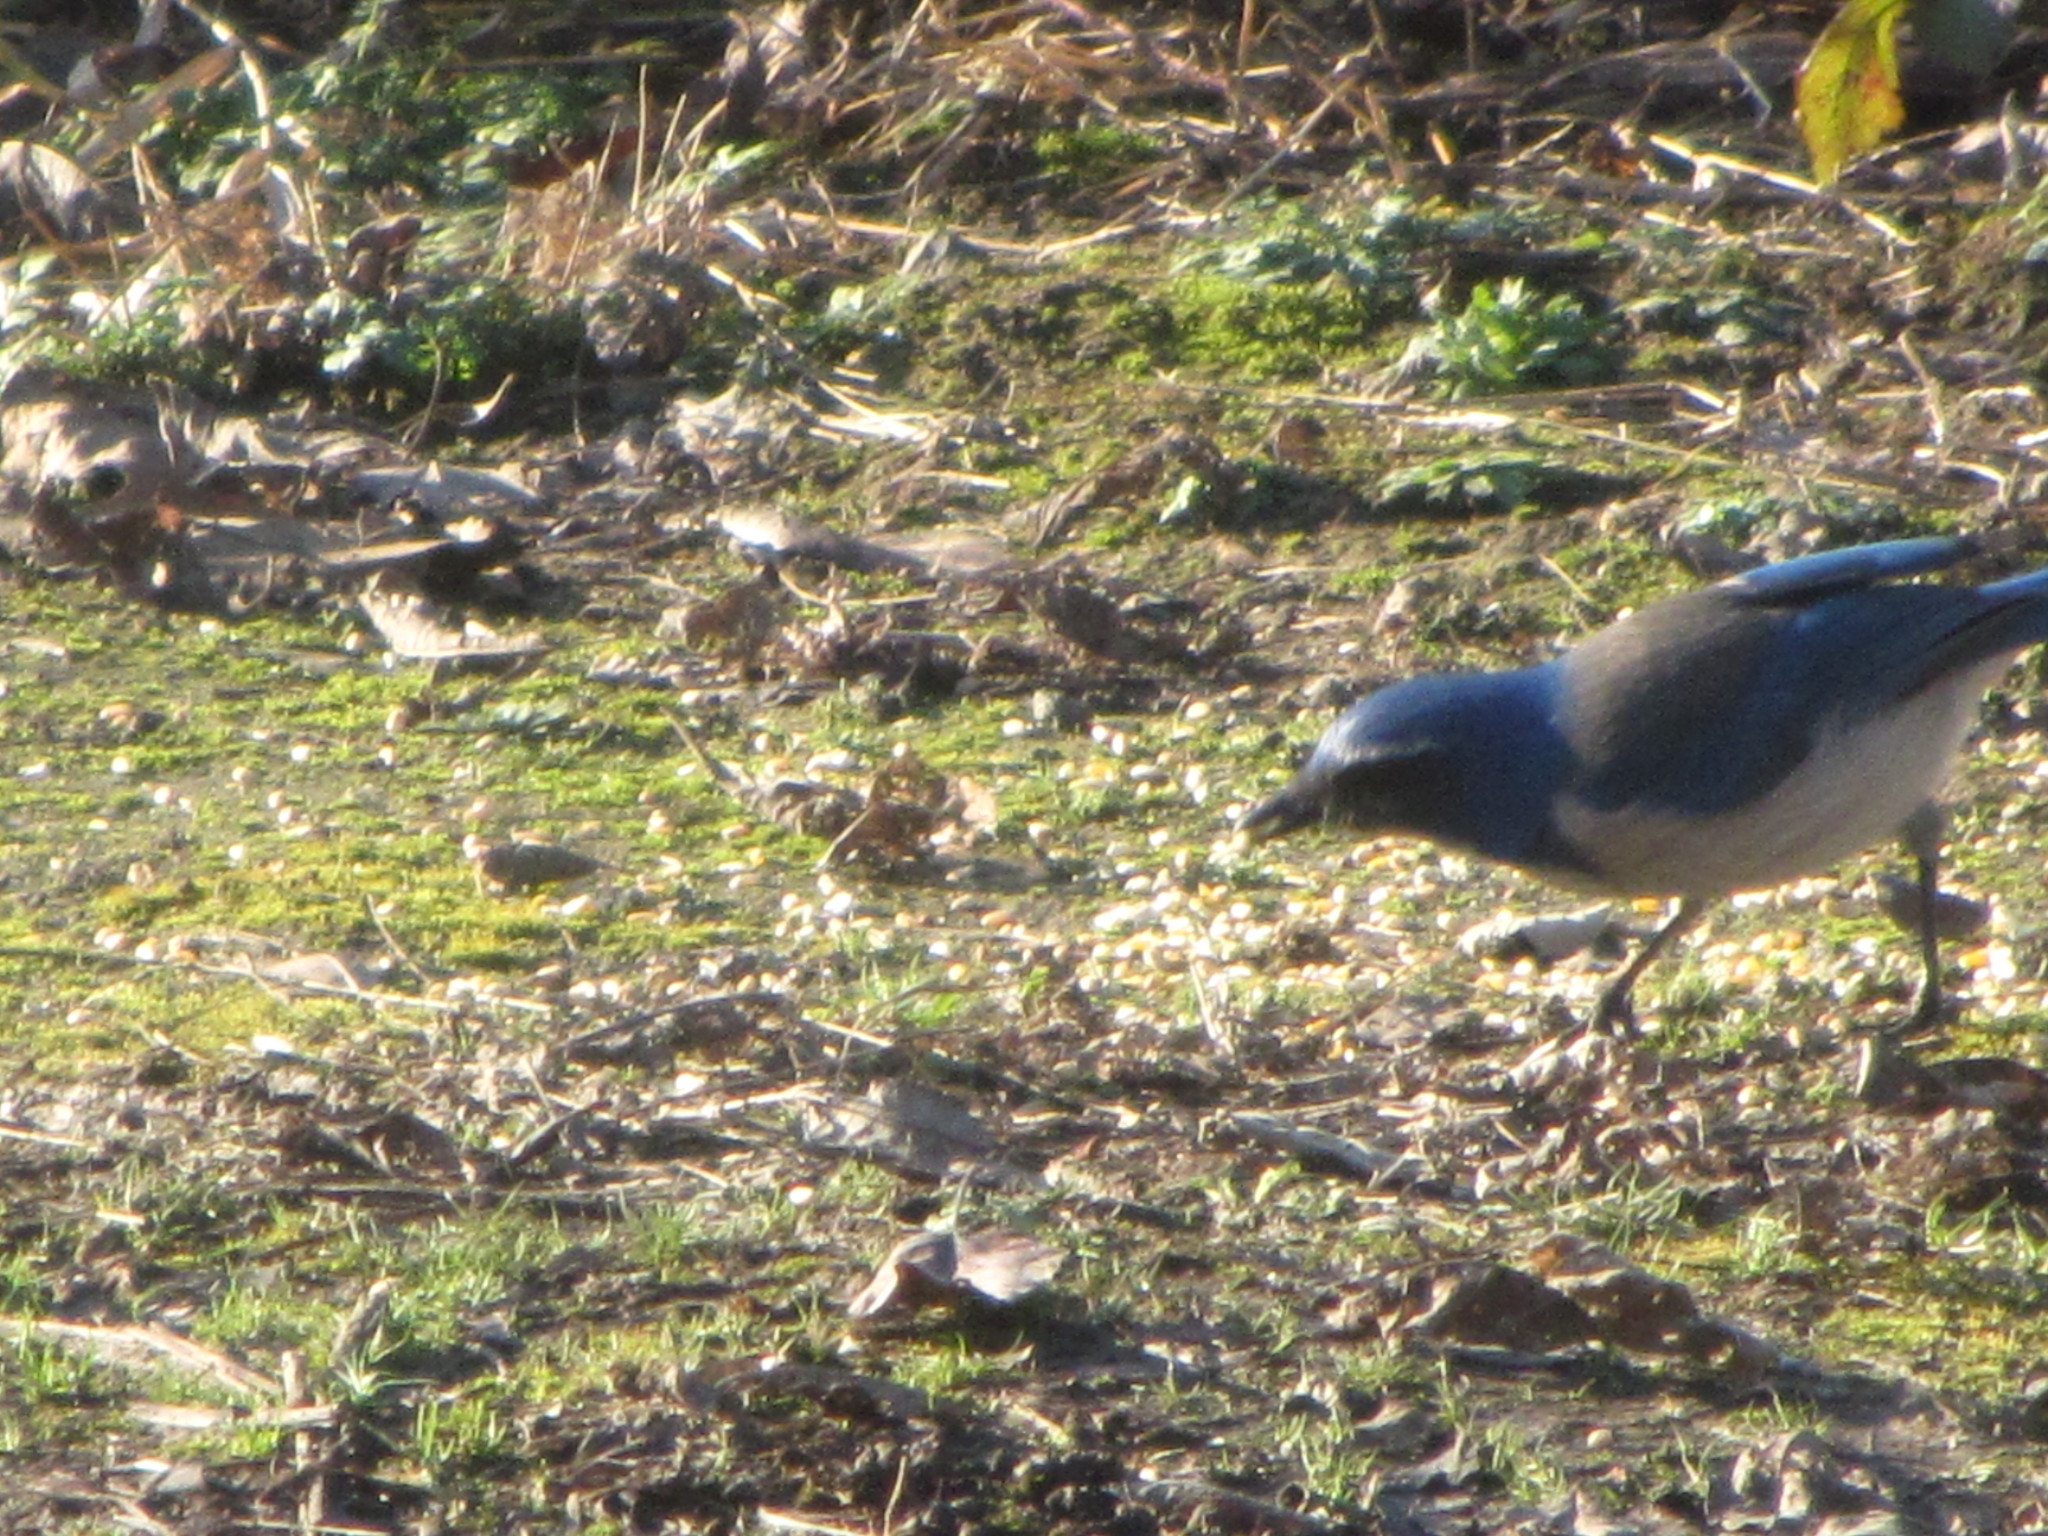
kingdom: Animalia
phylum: Chordata
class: Aves
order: Passeriformes
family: Corvidae
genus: Aphelocoma
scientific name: Aphelocoma californica
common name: California scrub-jay
